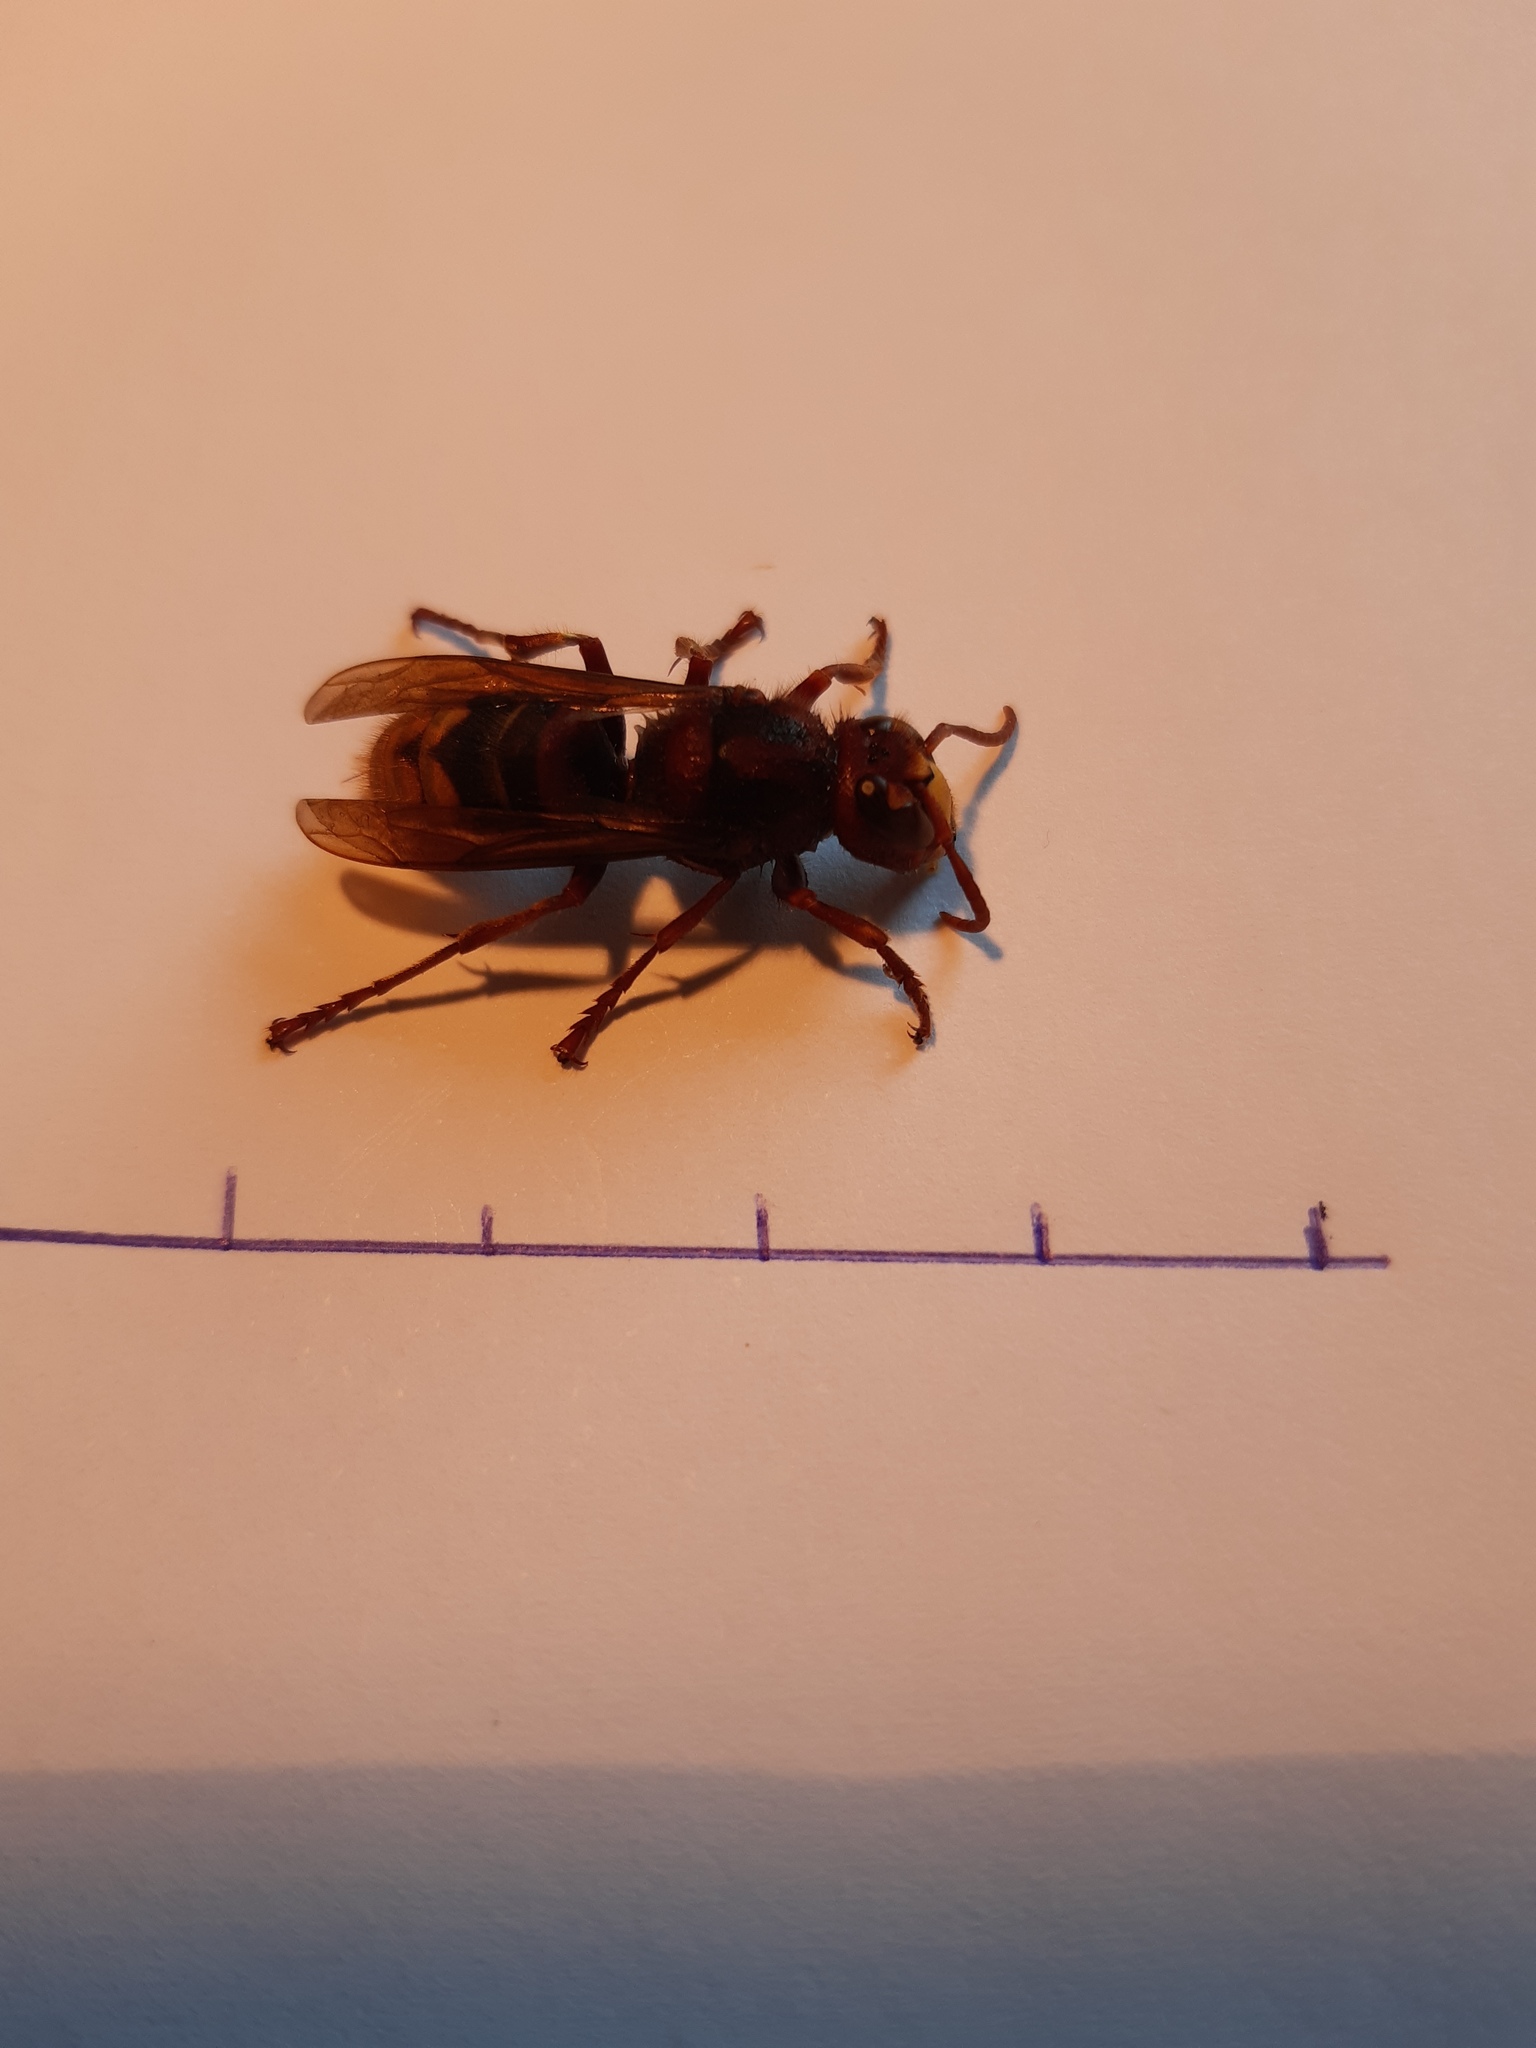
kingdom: Animalia
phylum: Arthropoda
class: Insecta
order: Hymenoptera
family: Vespidae
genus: Vespa
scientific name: Vespa crabro
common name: Hornet
